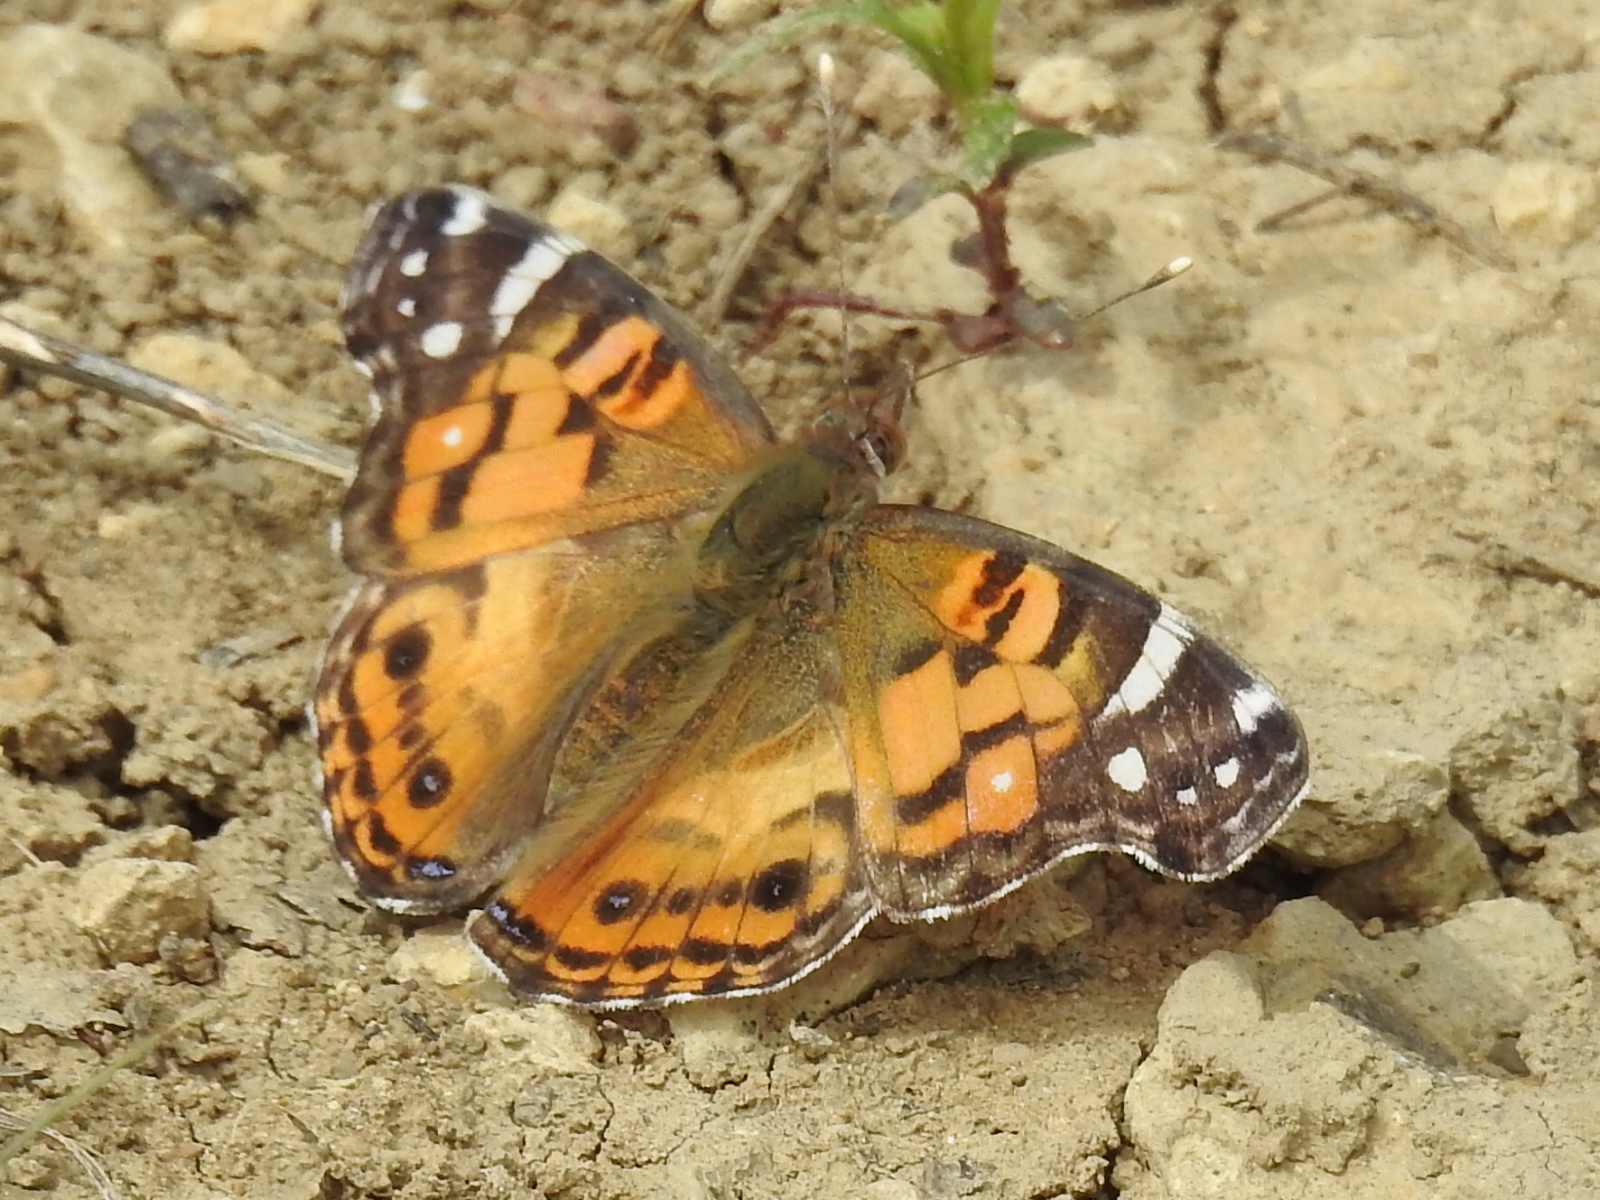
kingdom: Animalia
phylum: Arthropoda
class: Insecta
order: Lepidoptera
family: Nymphalidae
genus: Vanessa
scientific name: Vanessa virginiensis
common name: American lady
